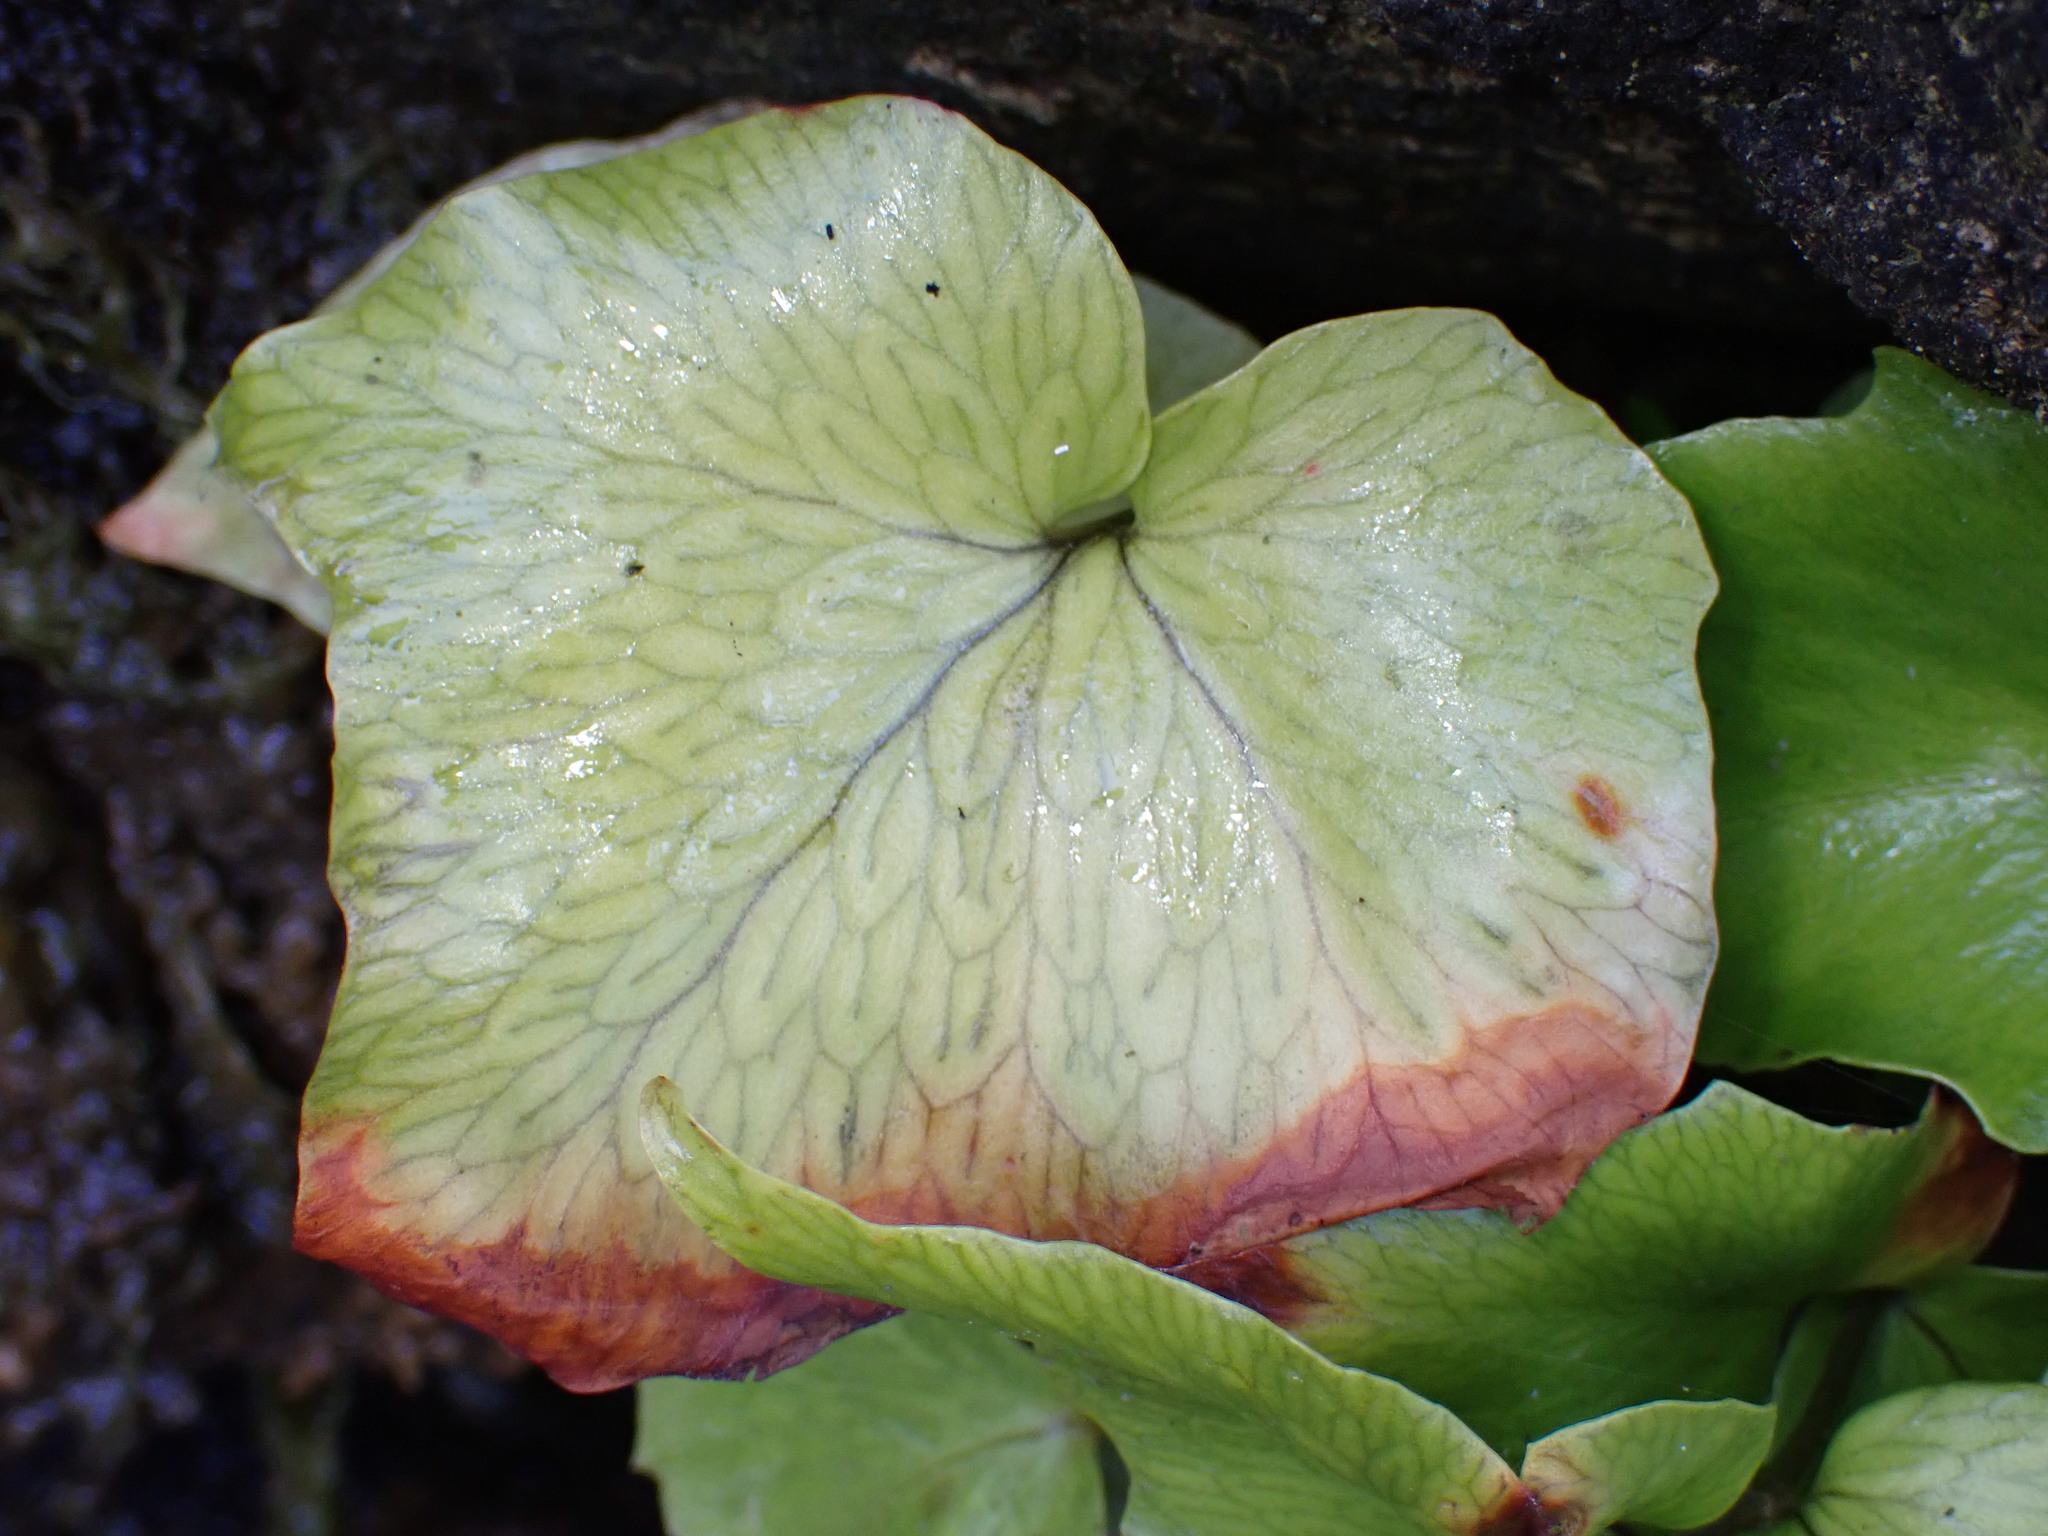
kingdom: Plantae
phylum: Tracheophyta
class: Polypodiopsida
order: Polypodiales
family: Dryopteridaceae
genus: Cyrtomium
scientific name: Cyrtomium falcatum
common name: House holly-fern
